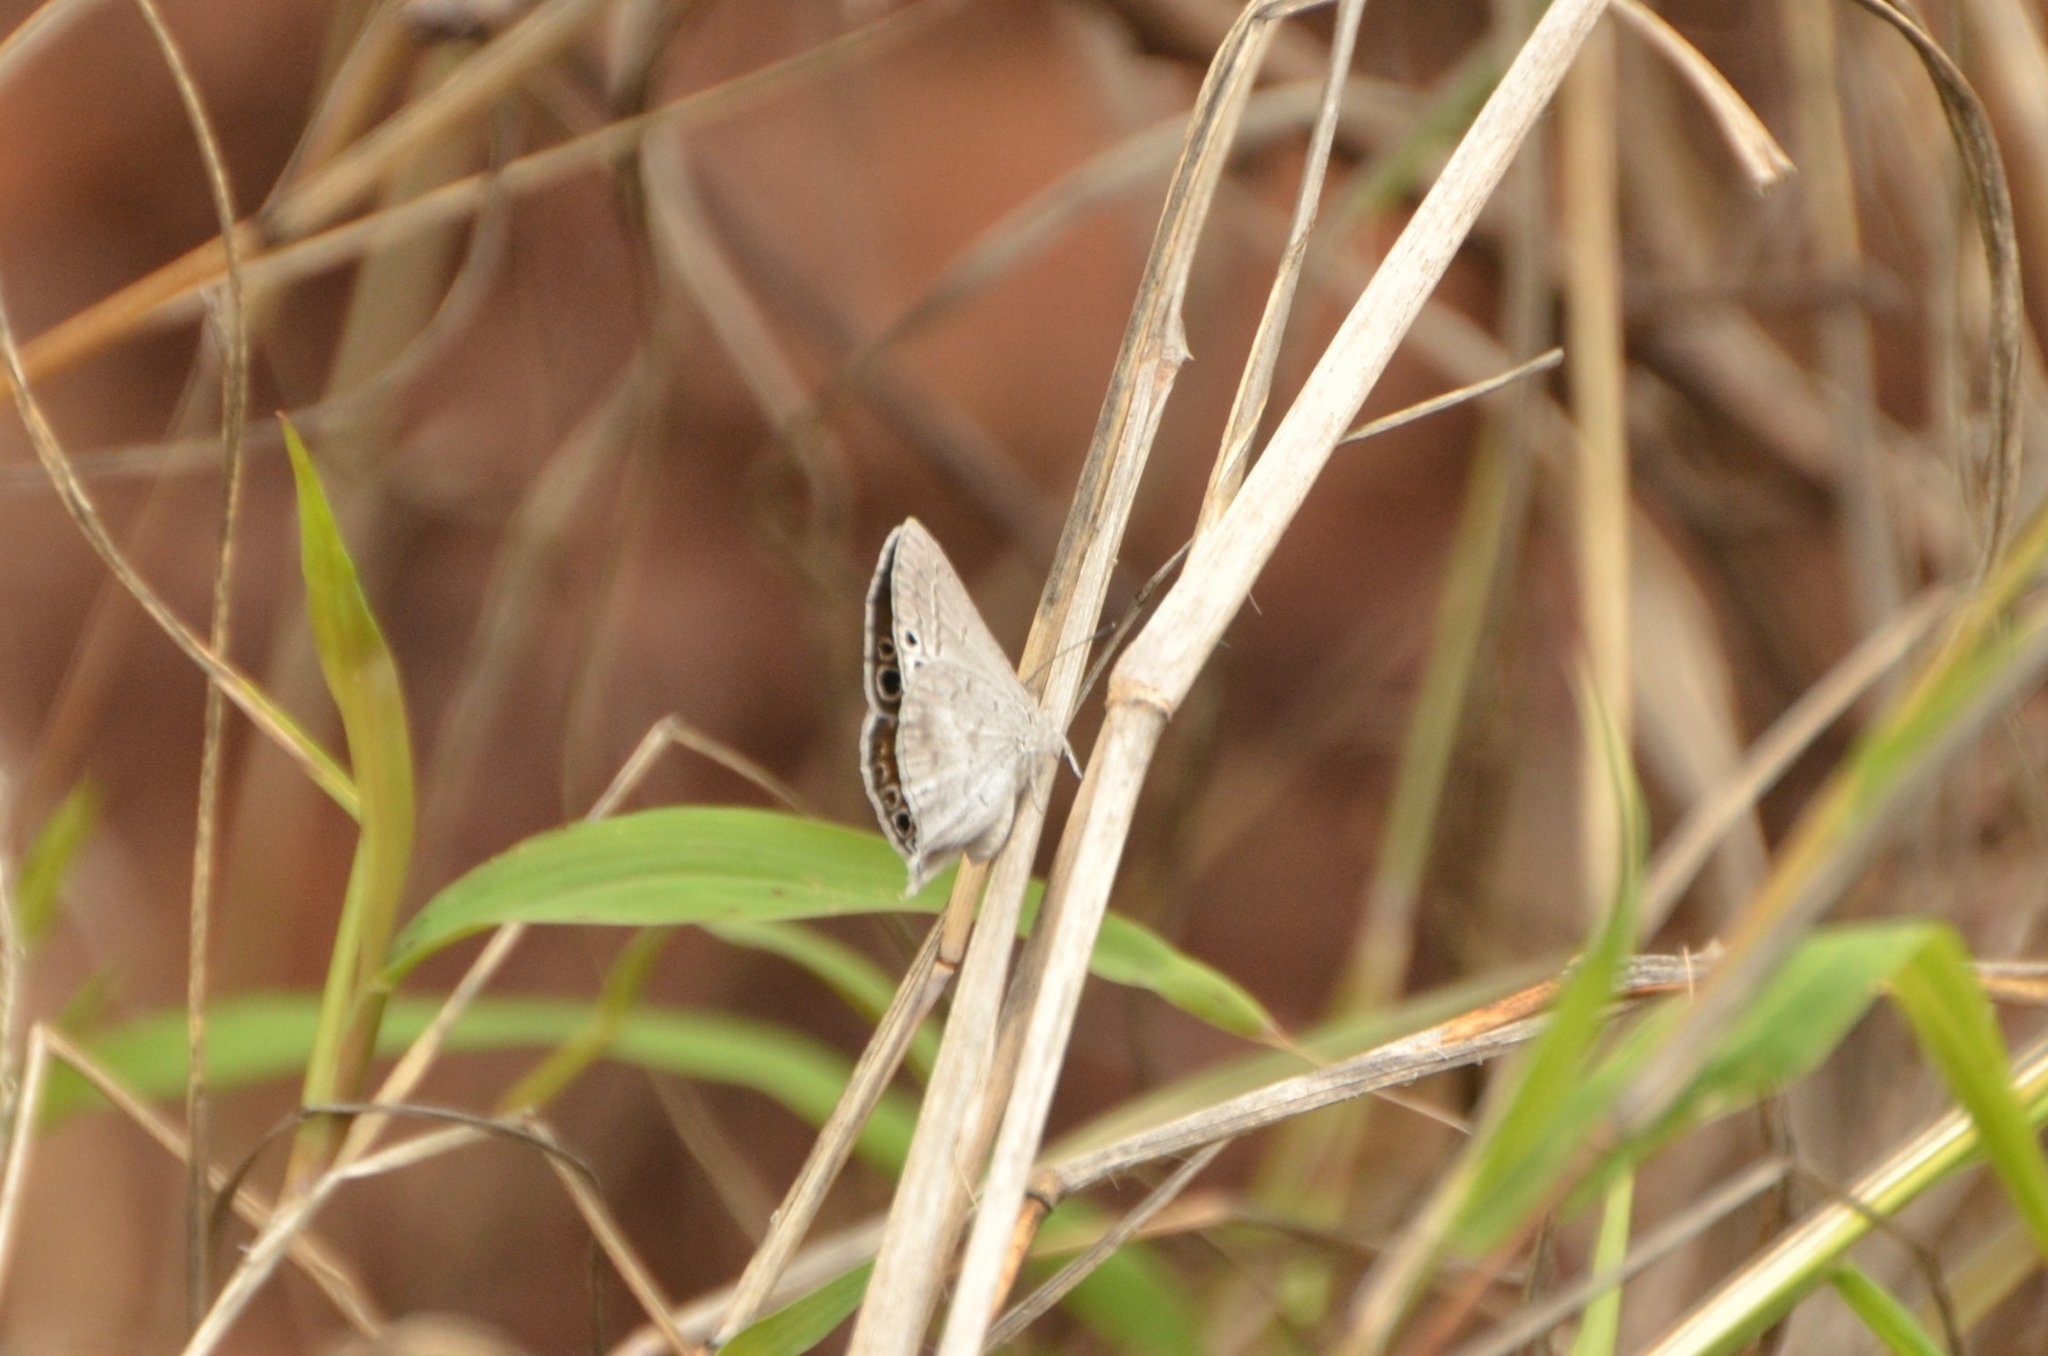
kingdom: Animalia
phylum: Arthropoda
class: Insecta
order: Lepidoptera
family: Lycaenidae
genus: Leptomyrina
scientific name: Leptomyrina gorgias
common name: Common black-eye
